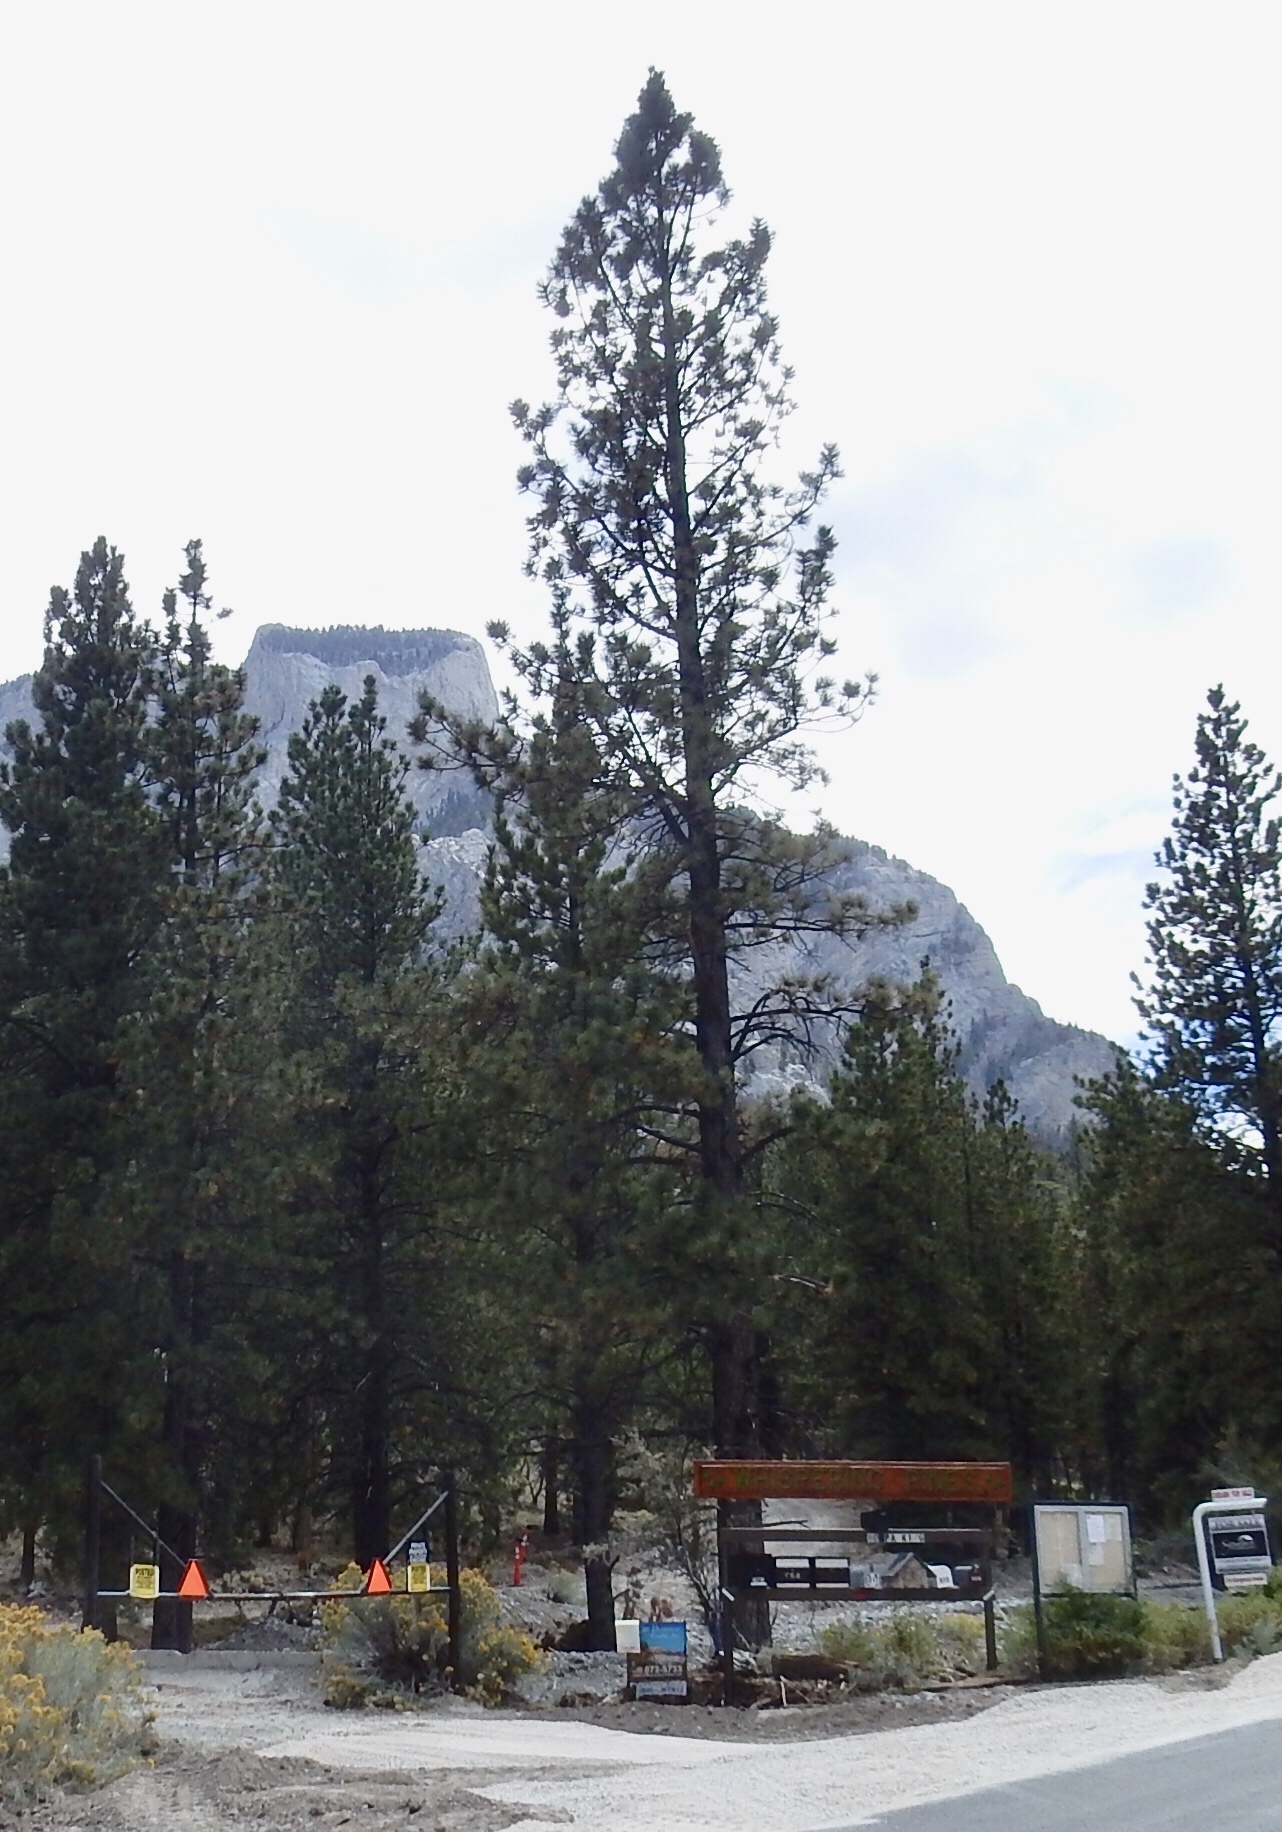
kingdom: Plantae
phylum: Tracheophyta
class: Pinopsida
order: Pinales
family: Pinaceae
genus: Pinus
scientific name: Pinus ponderosa
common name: Western yellow-pine
